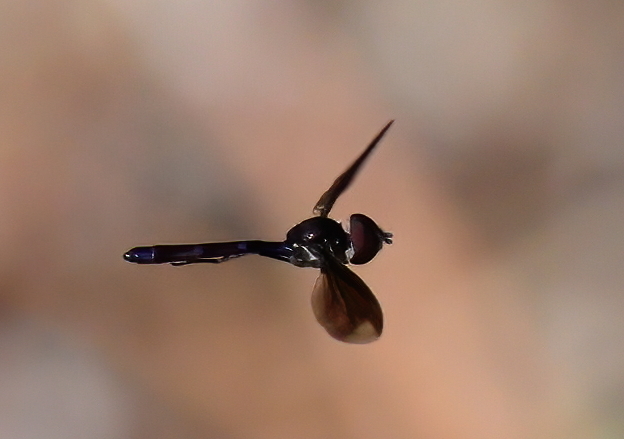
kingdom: Animalia
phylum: Arthropoda
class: Insecta
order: Diptera
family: Syrphidae
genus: Ocyptamus
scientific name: Ocyptamus fuscipennis
